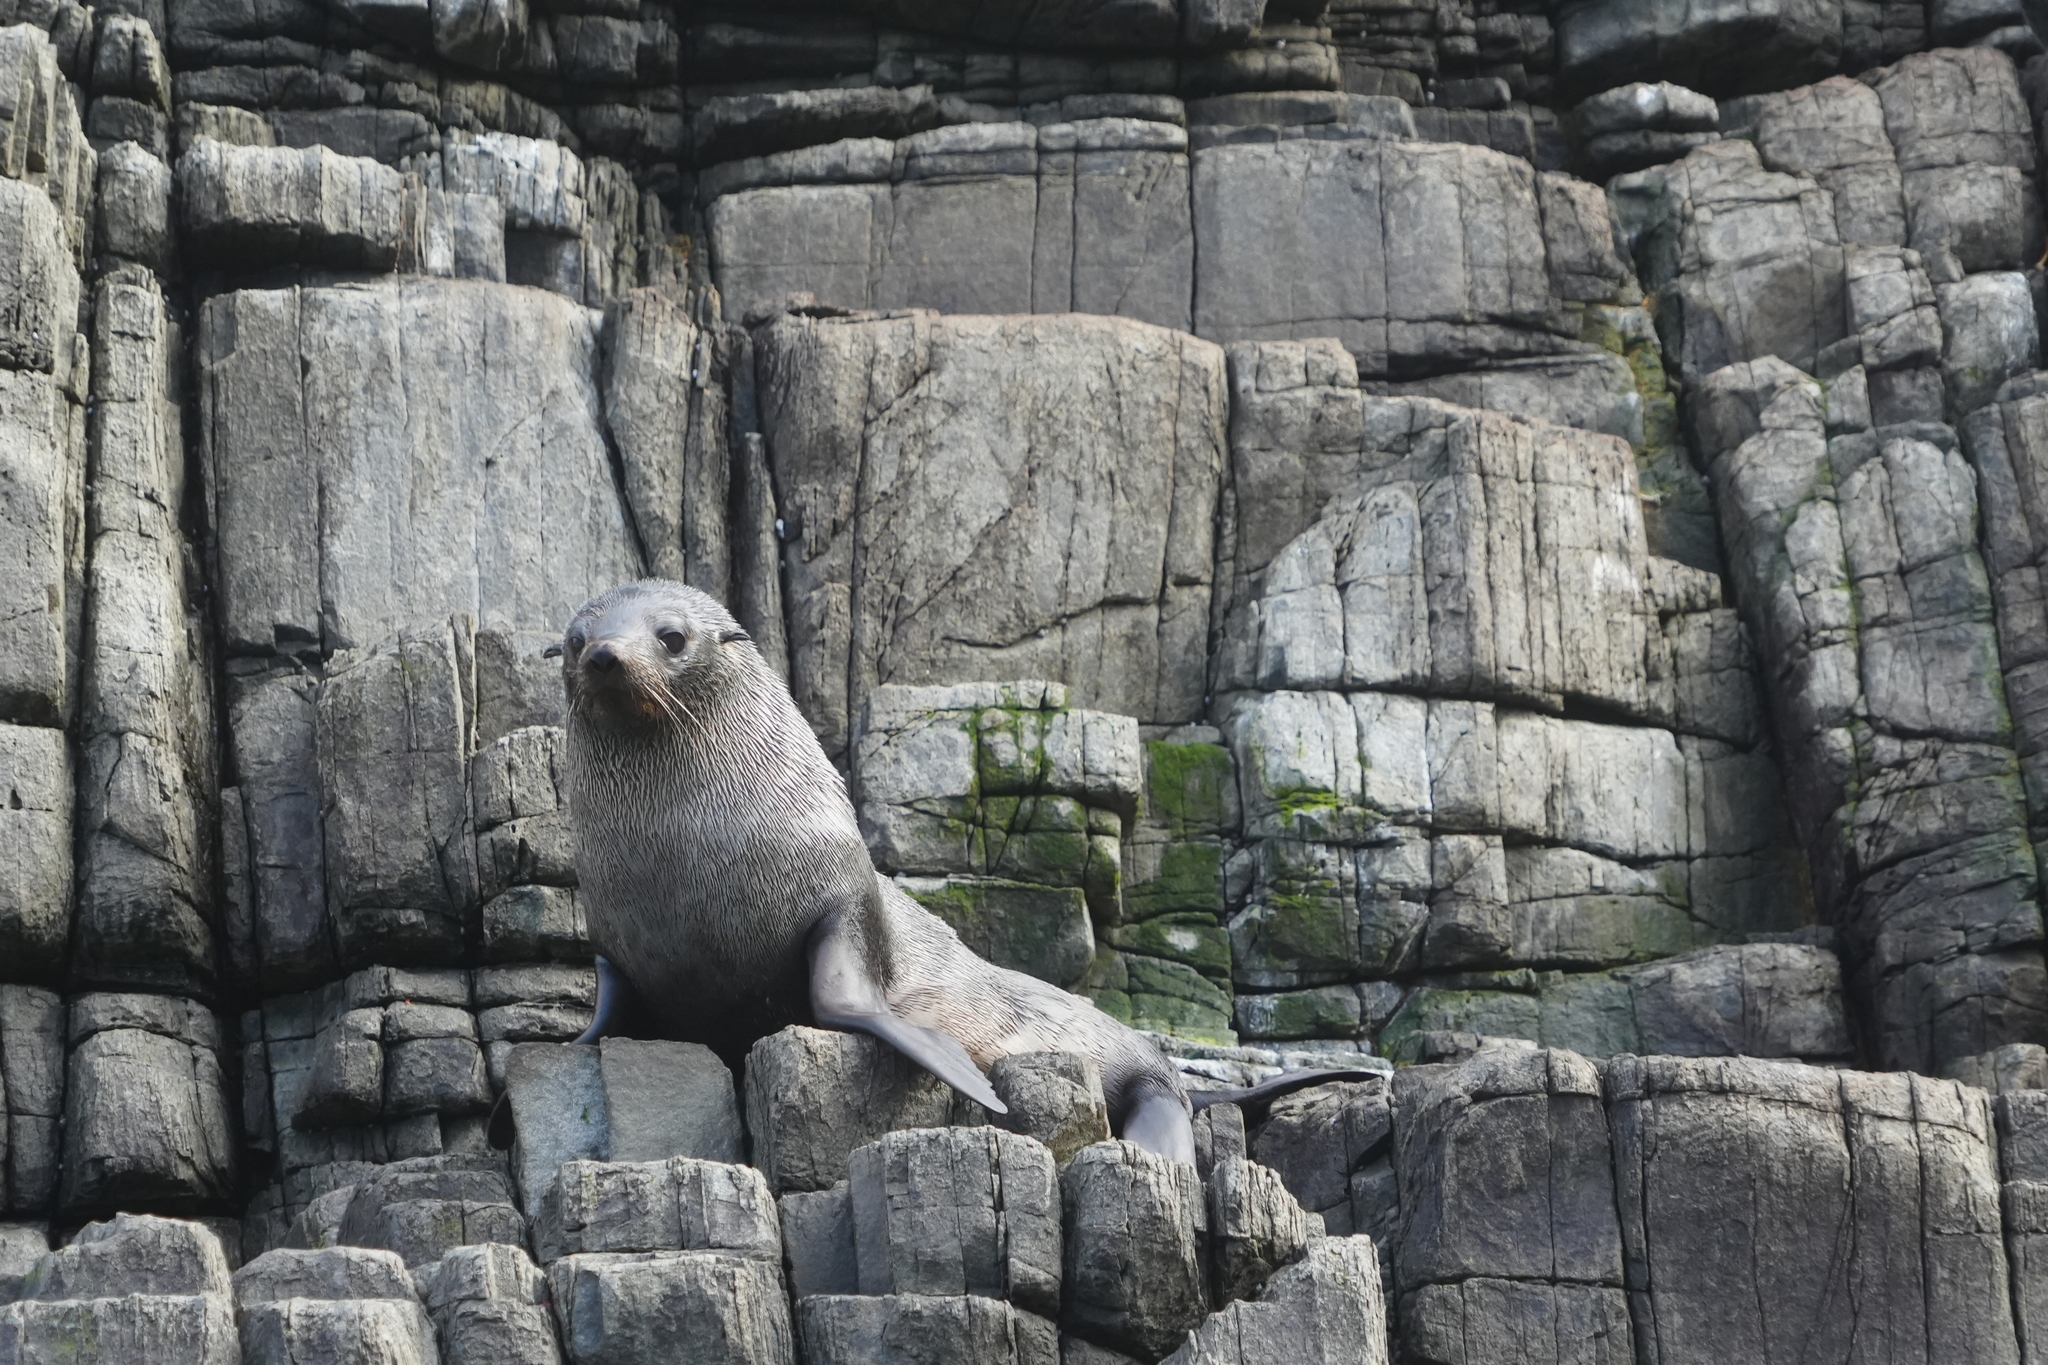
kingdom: Animalia
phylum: Chordata
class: Mammalia
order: Carnivora
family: Otariidae
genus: Arctocephalus
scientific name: Arctocephalus forsteri
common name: New zealand fur seal
